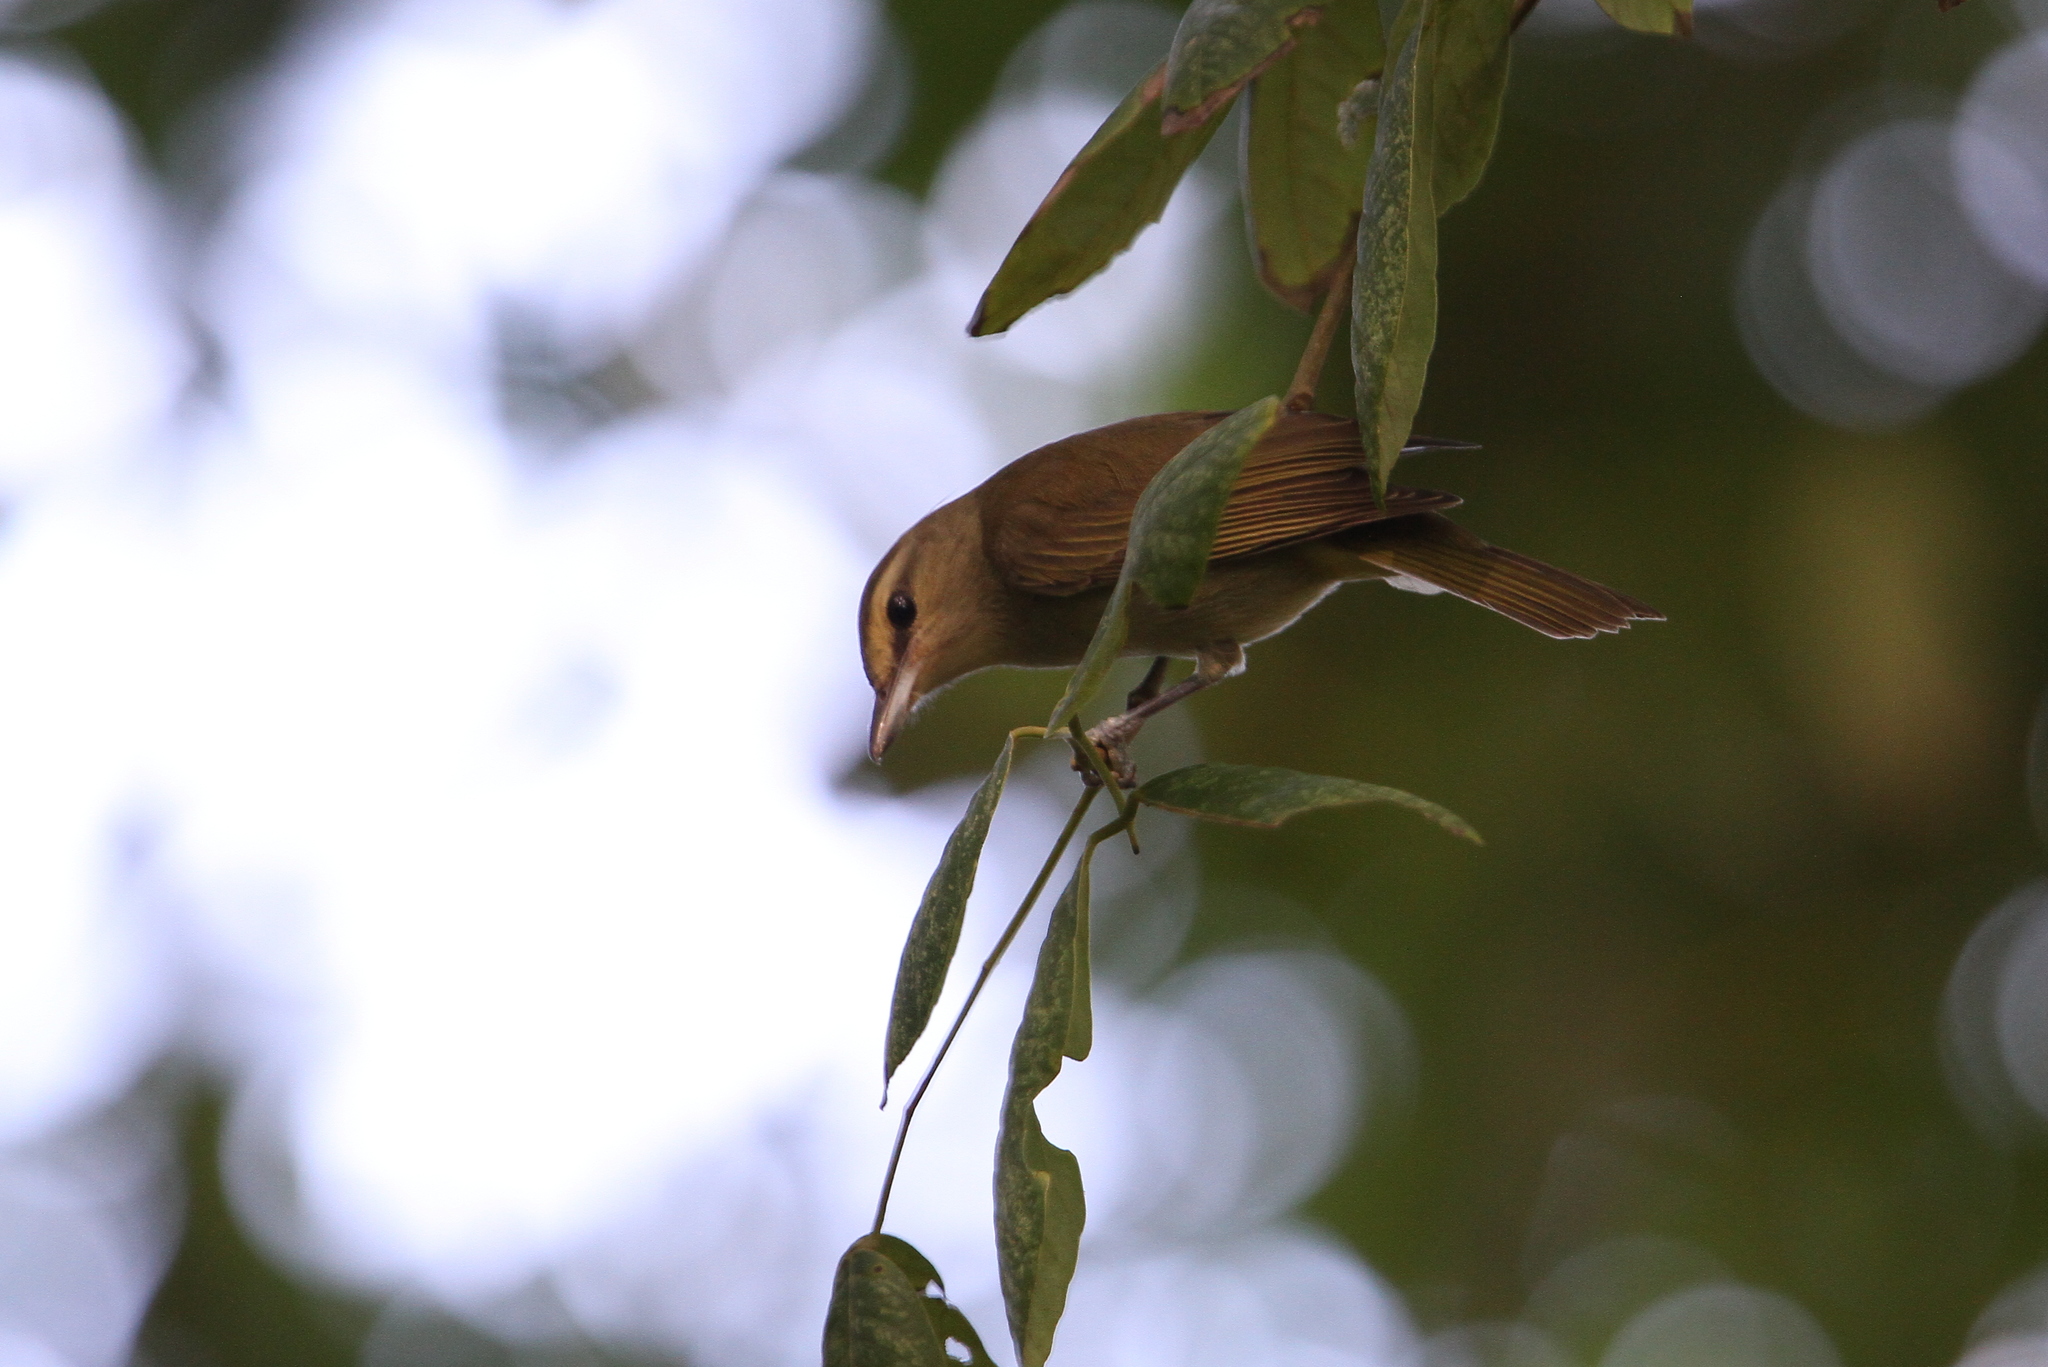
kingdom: Animalia
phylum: Chordata
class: Aves
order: Passeriformes
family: Vireonidae
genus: Vireo
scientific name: Vireo magister
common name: Yucatan vireo
